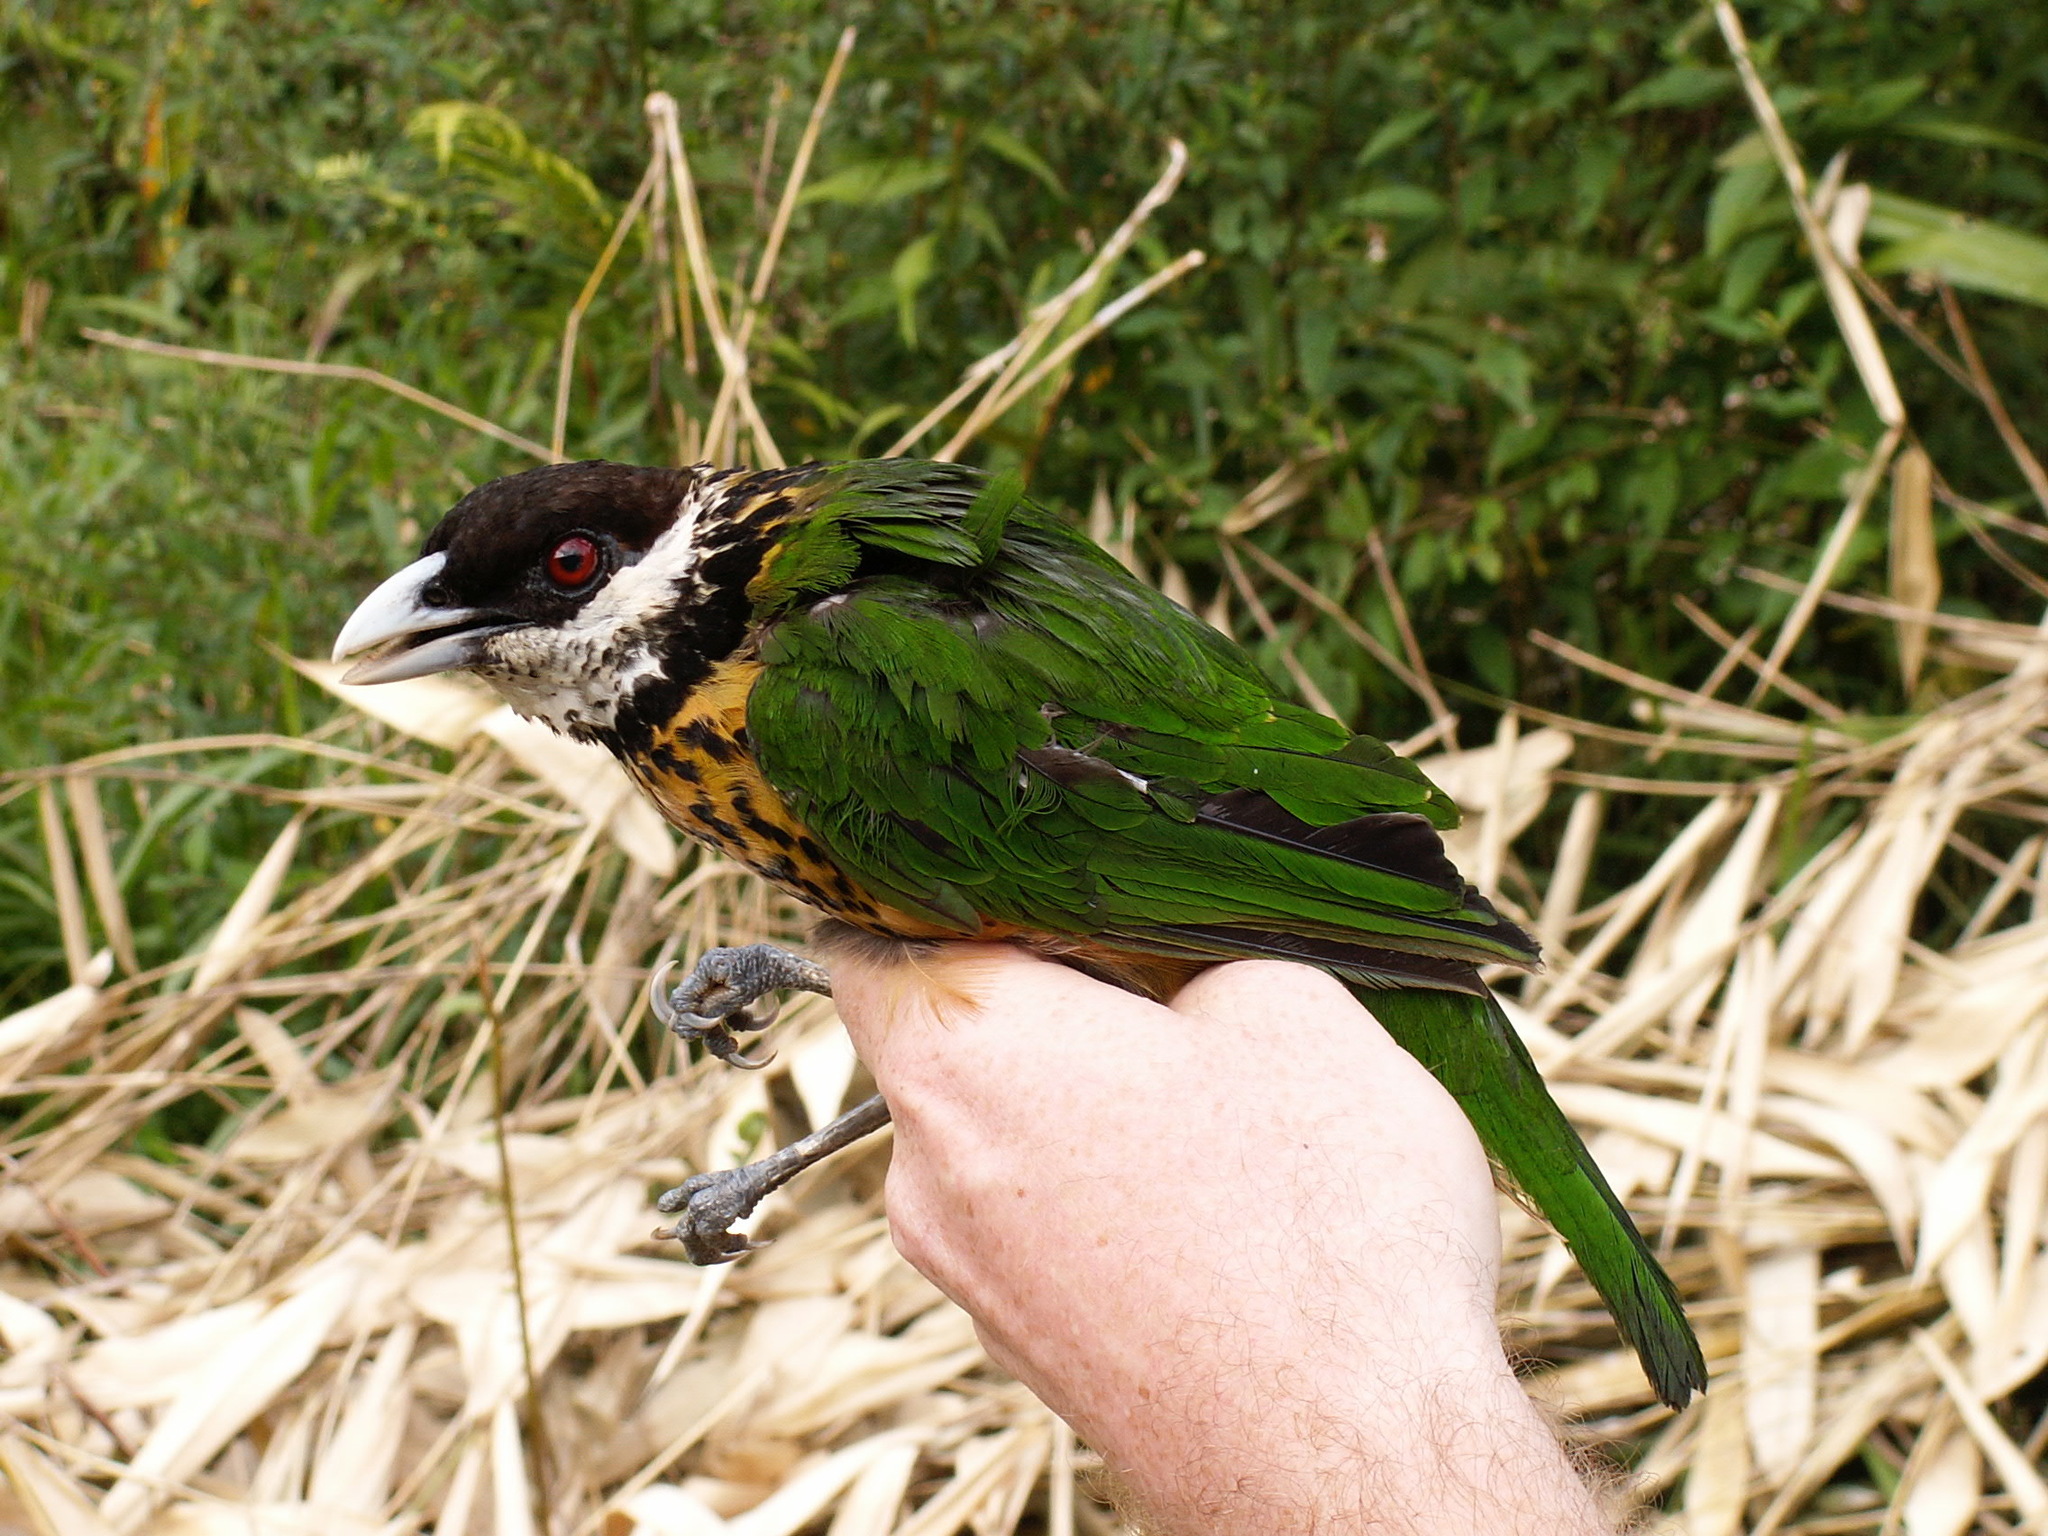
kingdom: Animalia
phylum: Chordata
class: Aves
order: Passeriformes
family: Ptilonorhynchidae
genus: Ailuroedus
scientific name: Ailuroedus stonii
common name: Ochre-breasted catbird
